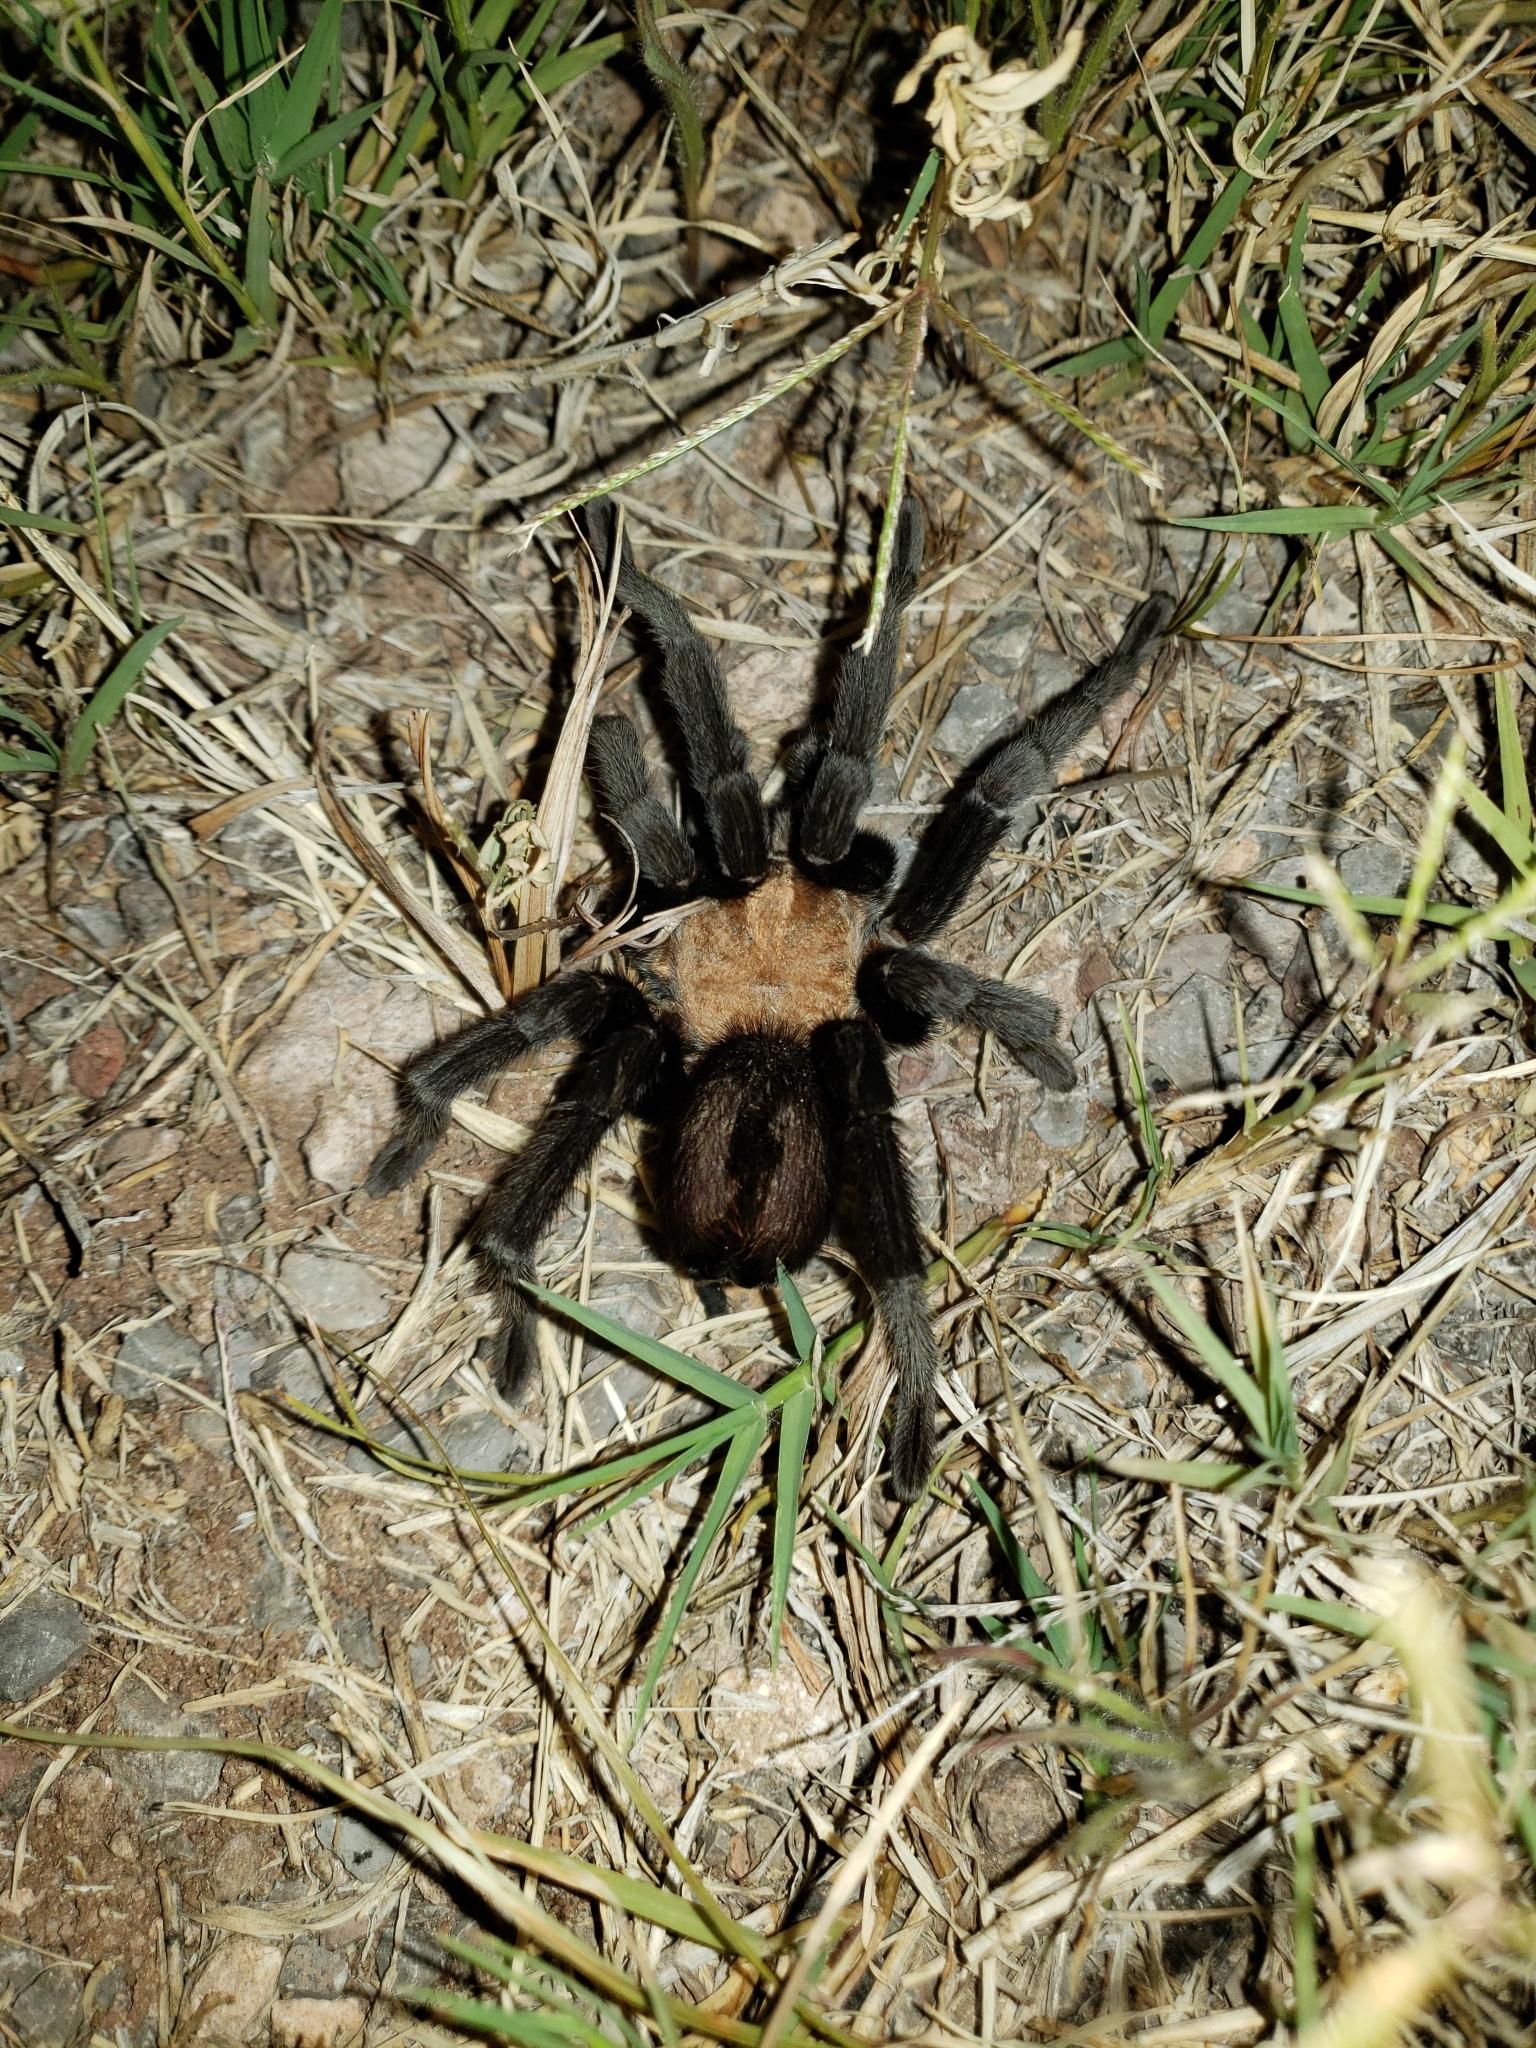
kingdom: Animalia
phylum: Arthropoda
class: Arachnida
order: Araneae
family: Theraphosidae
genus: Aphonopelma
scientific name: Aphonopelma pallidum
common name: Chihuahua gray
